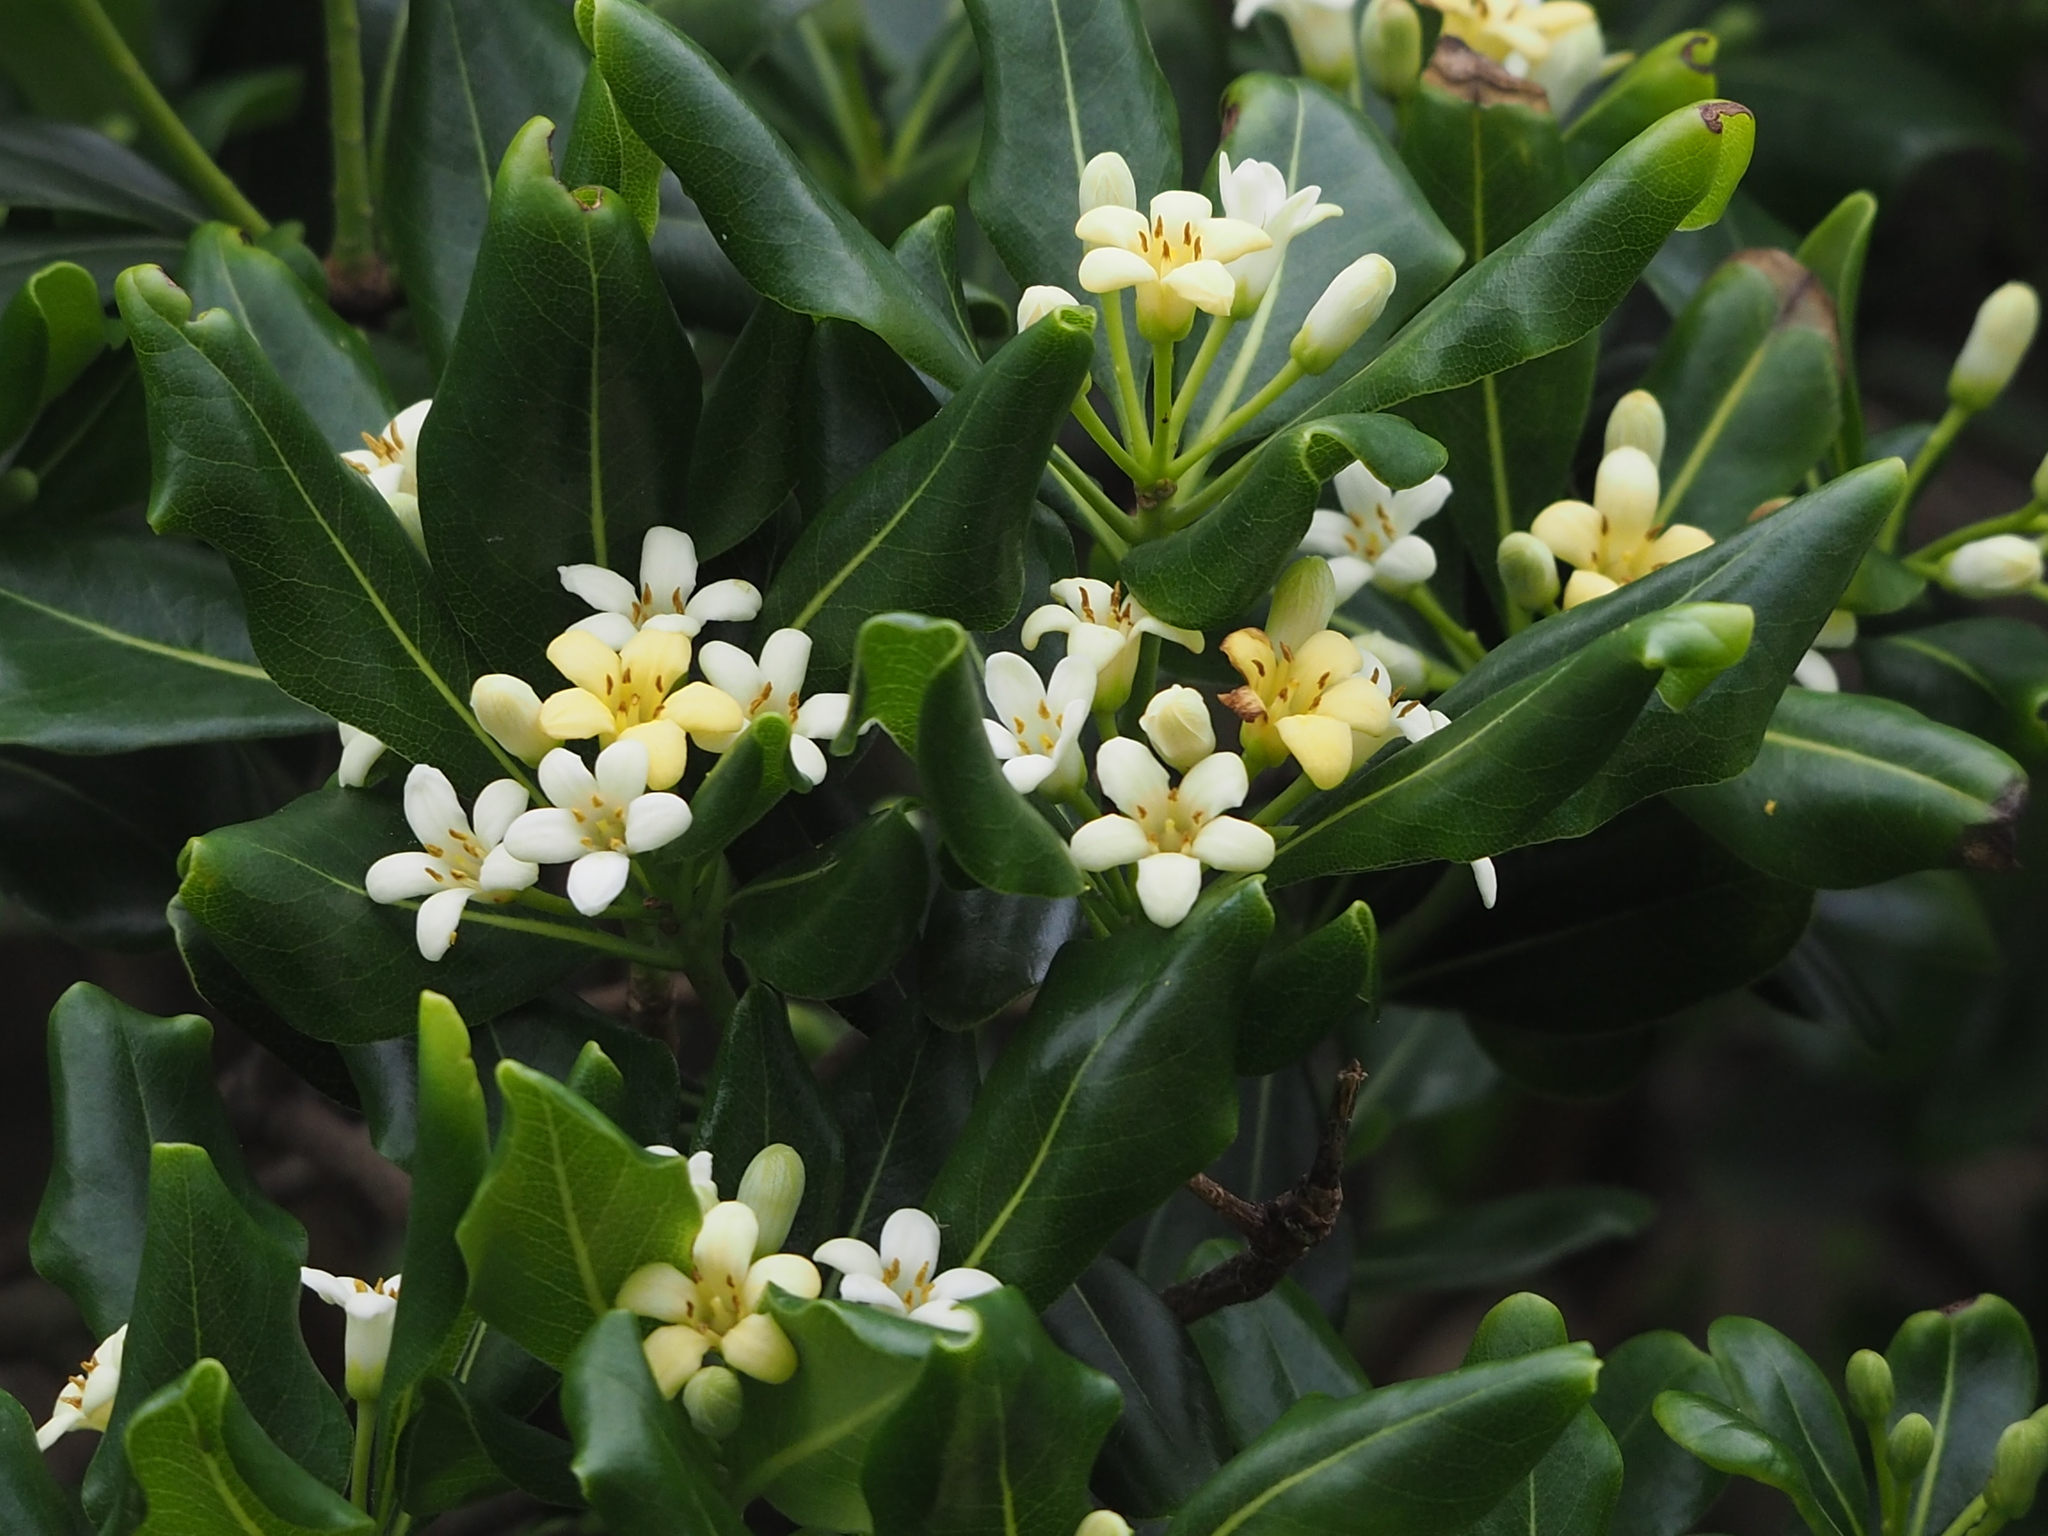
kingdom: Plantae
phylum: Tracheophyta
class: Magnoliopsida
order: Apiales
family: Pittosporaceae
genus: Pittosporum
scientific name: Pittosporum tobira
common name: Japanese cheesewood
